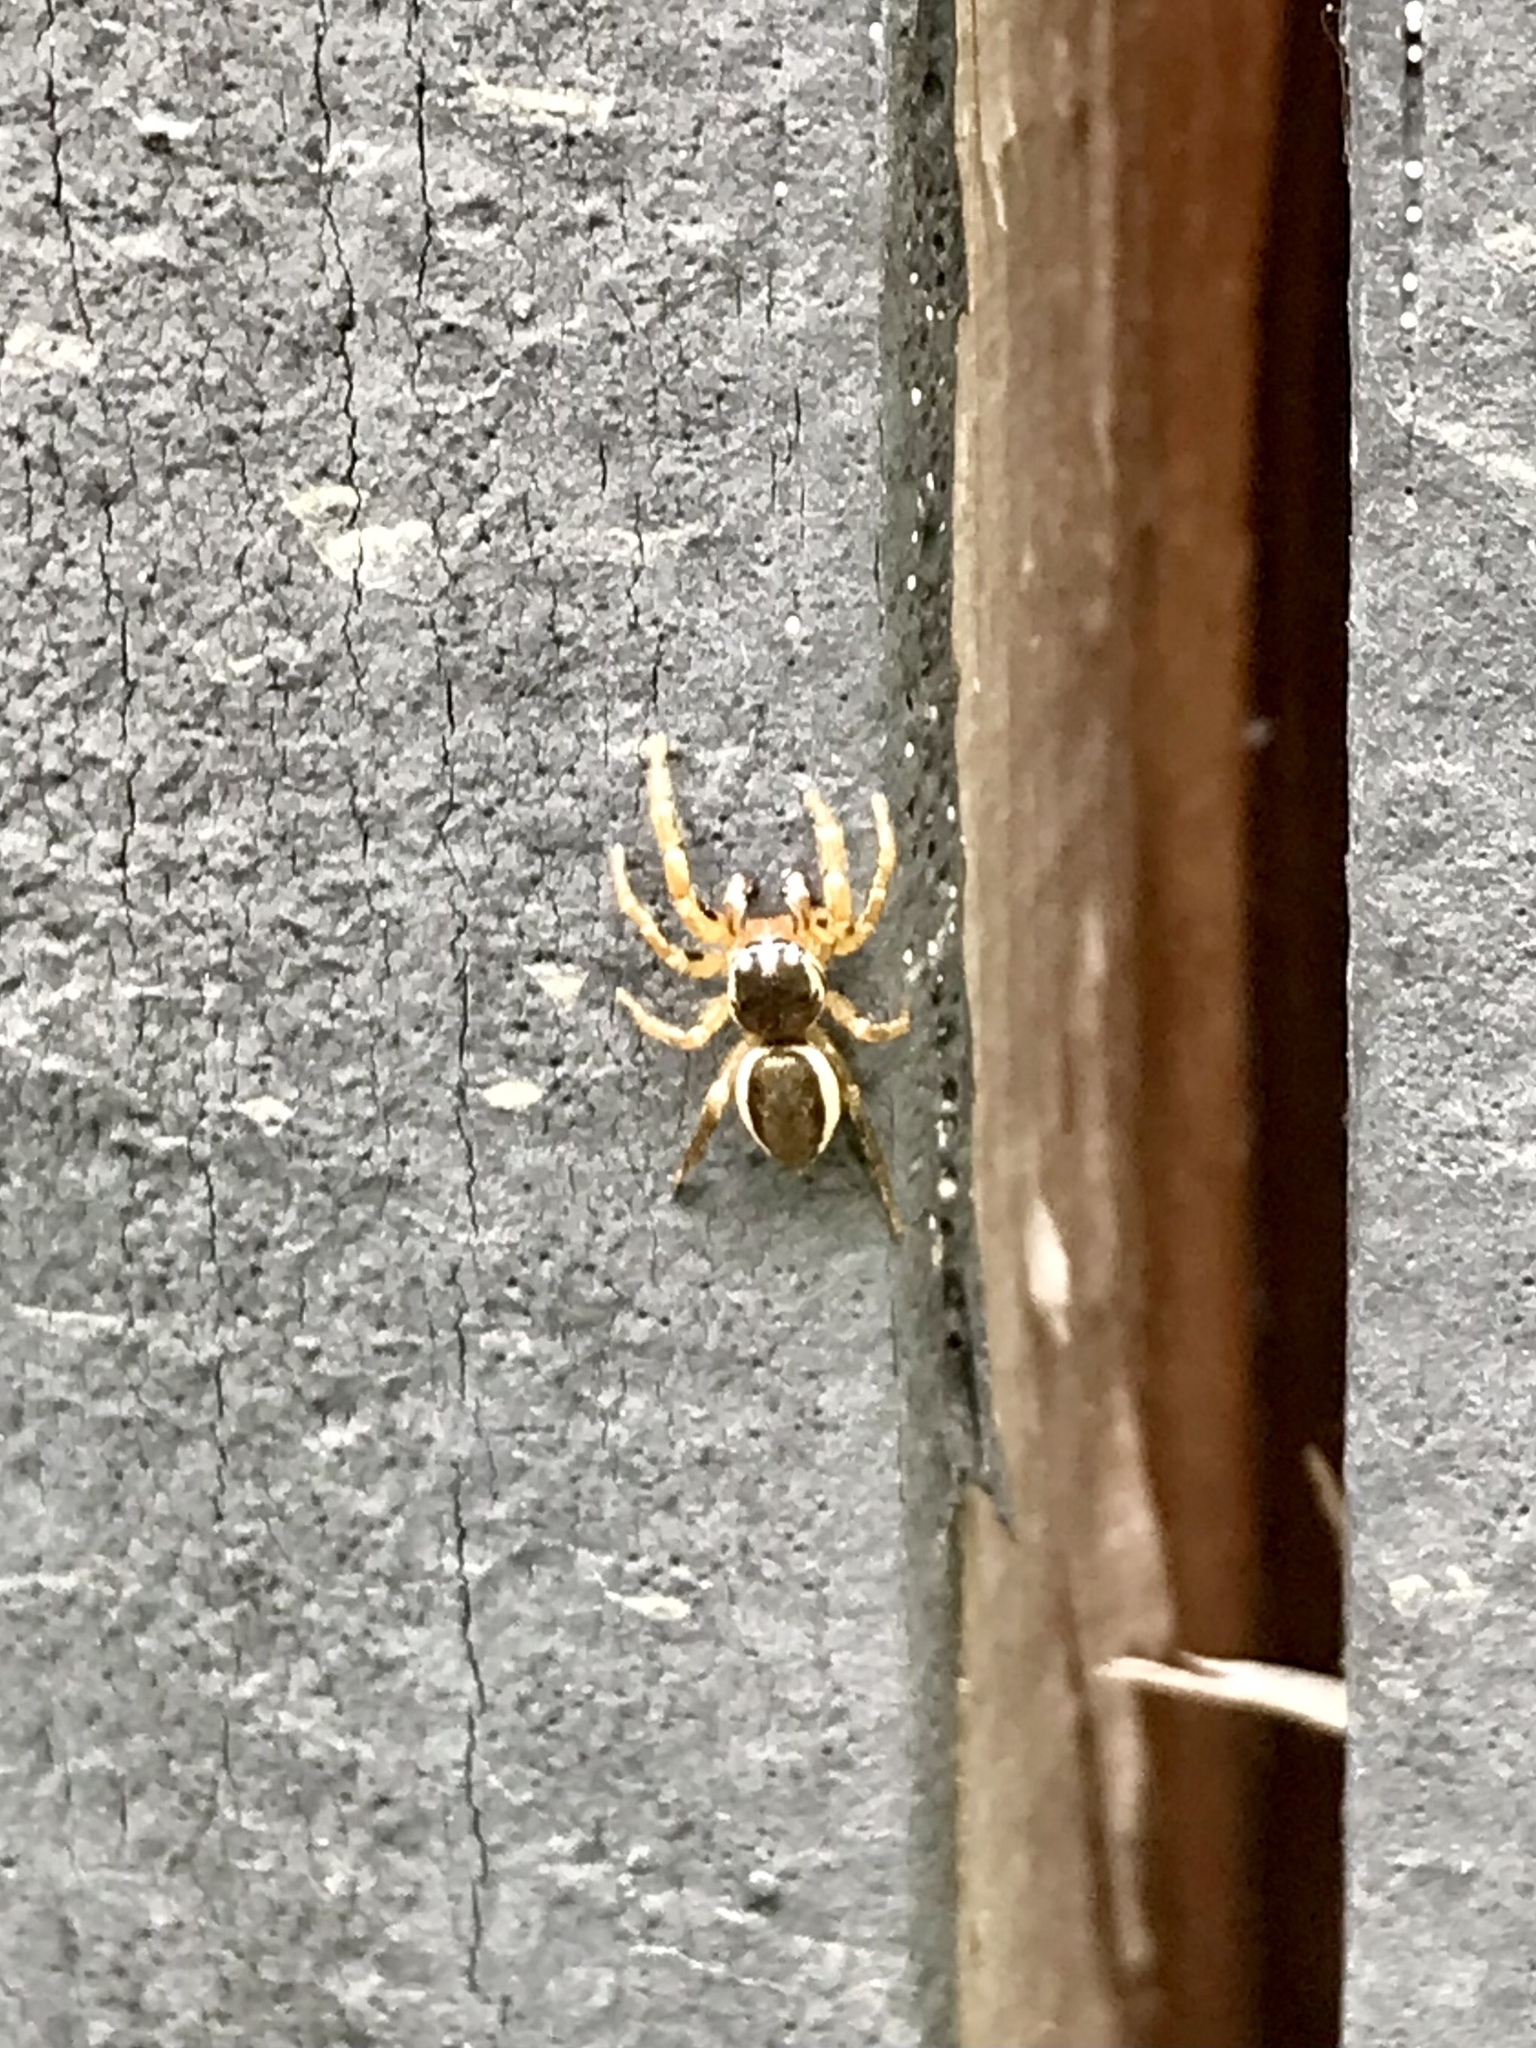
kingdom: Animalia
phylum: Arthropoda
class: Arachnida
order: Araneae
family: Salticidae
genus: Pelegrina
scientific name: Pelegrina flavipes
